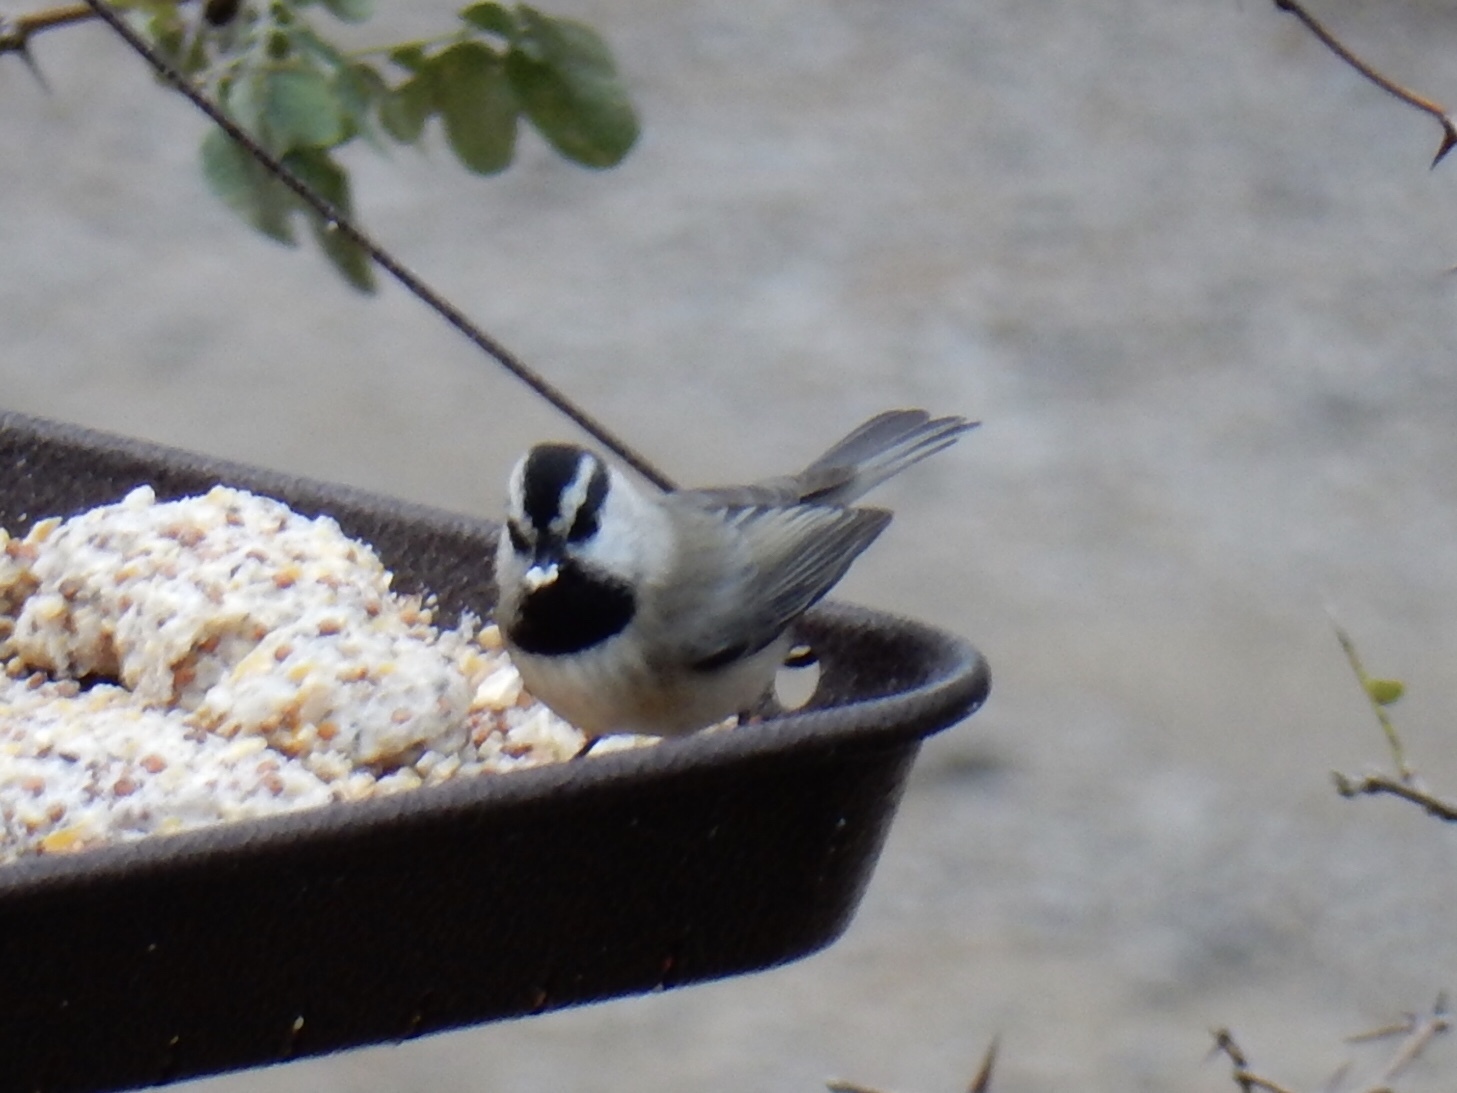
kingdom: Animalia
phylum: Chordata
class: Aves
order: Passeriformes
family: Paridae
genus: Poecile
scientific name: Poecile gambeli
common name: Mountain chickadee
